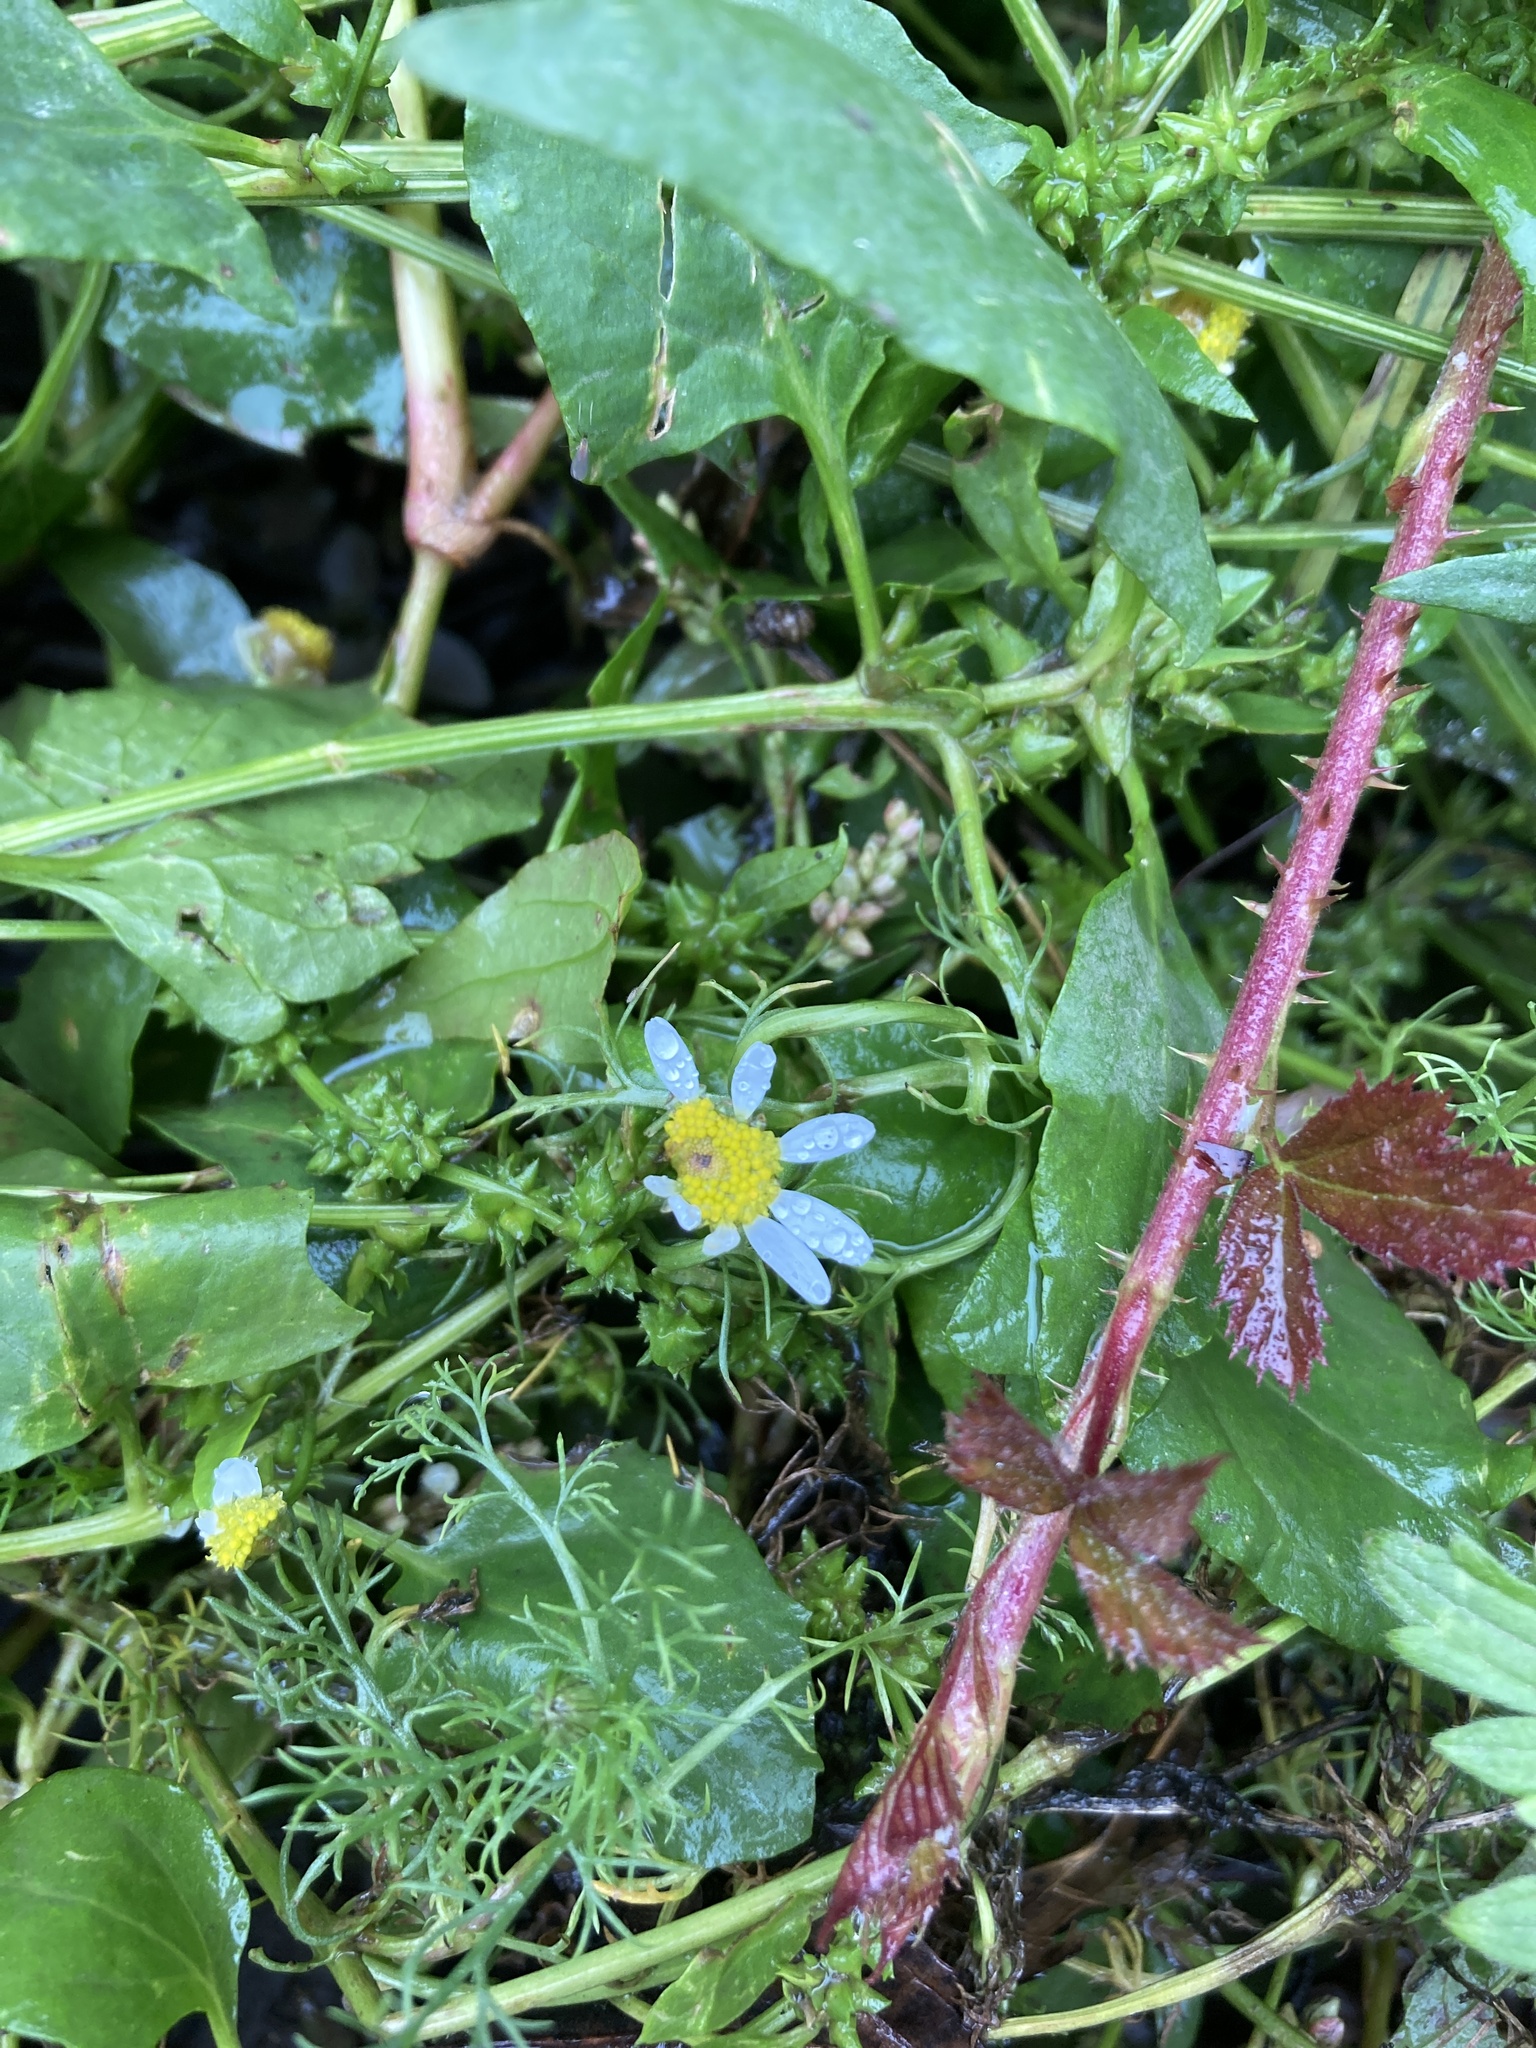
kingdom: Plantae
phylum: Tracheophyta
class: Magnoliopsida
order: Asterales
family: Asteraceae
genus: Tripleurospermum
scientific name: Tripleurospermum inodorum
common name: Scentless mayweed
